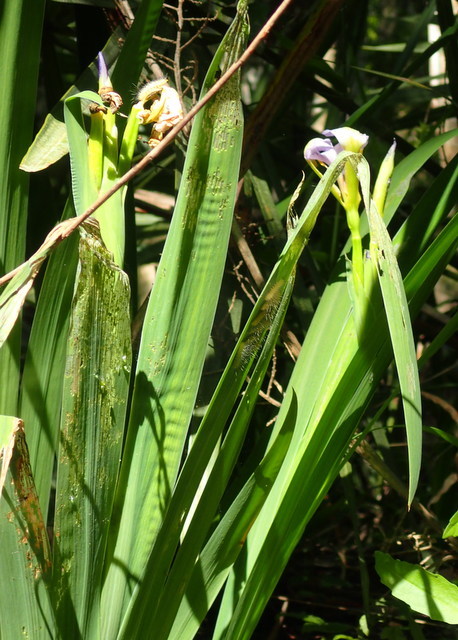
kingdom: Plantae
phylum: Tracheophyta
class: Liliopsida
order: Asparagales
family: Iridaceae
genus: Iris
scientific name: Iris virginica
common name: Southern blue flag
